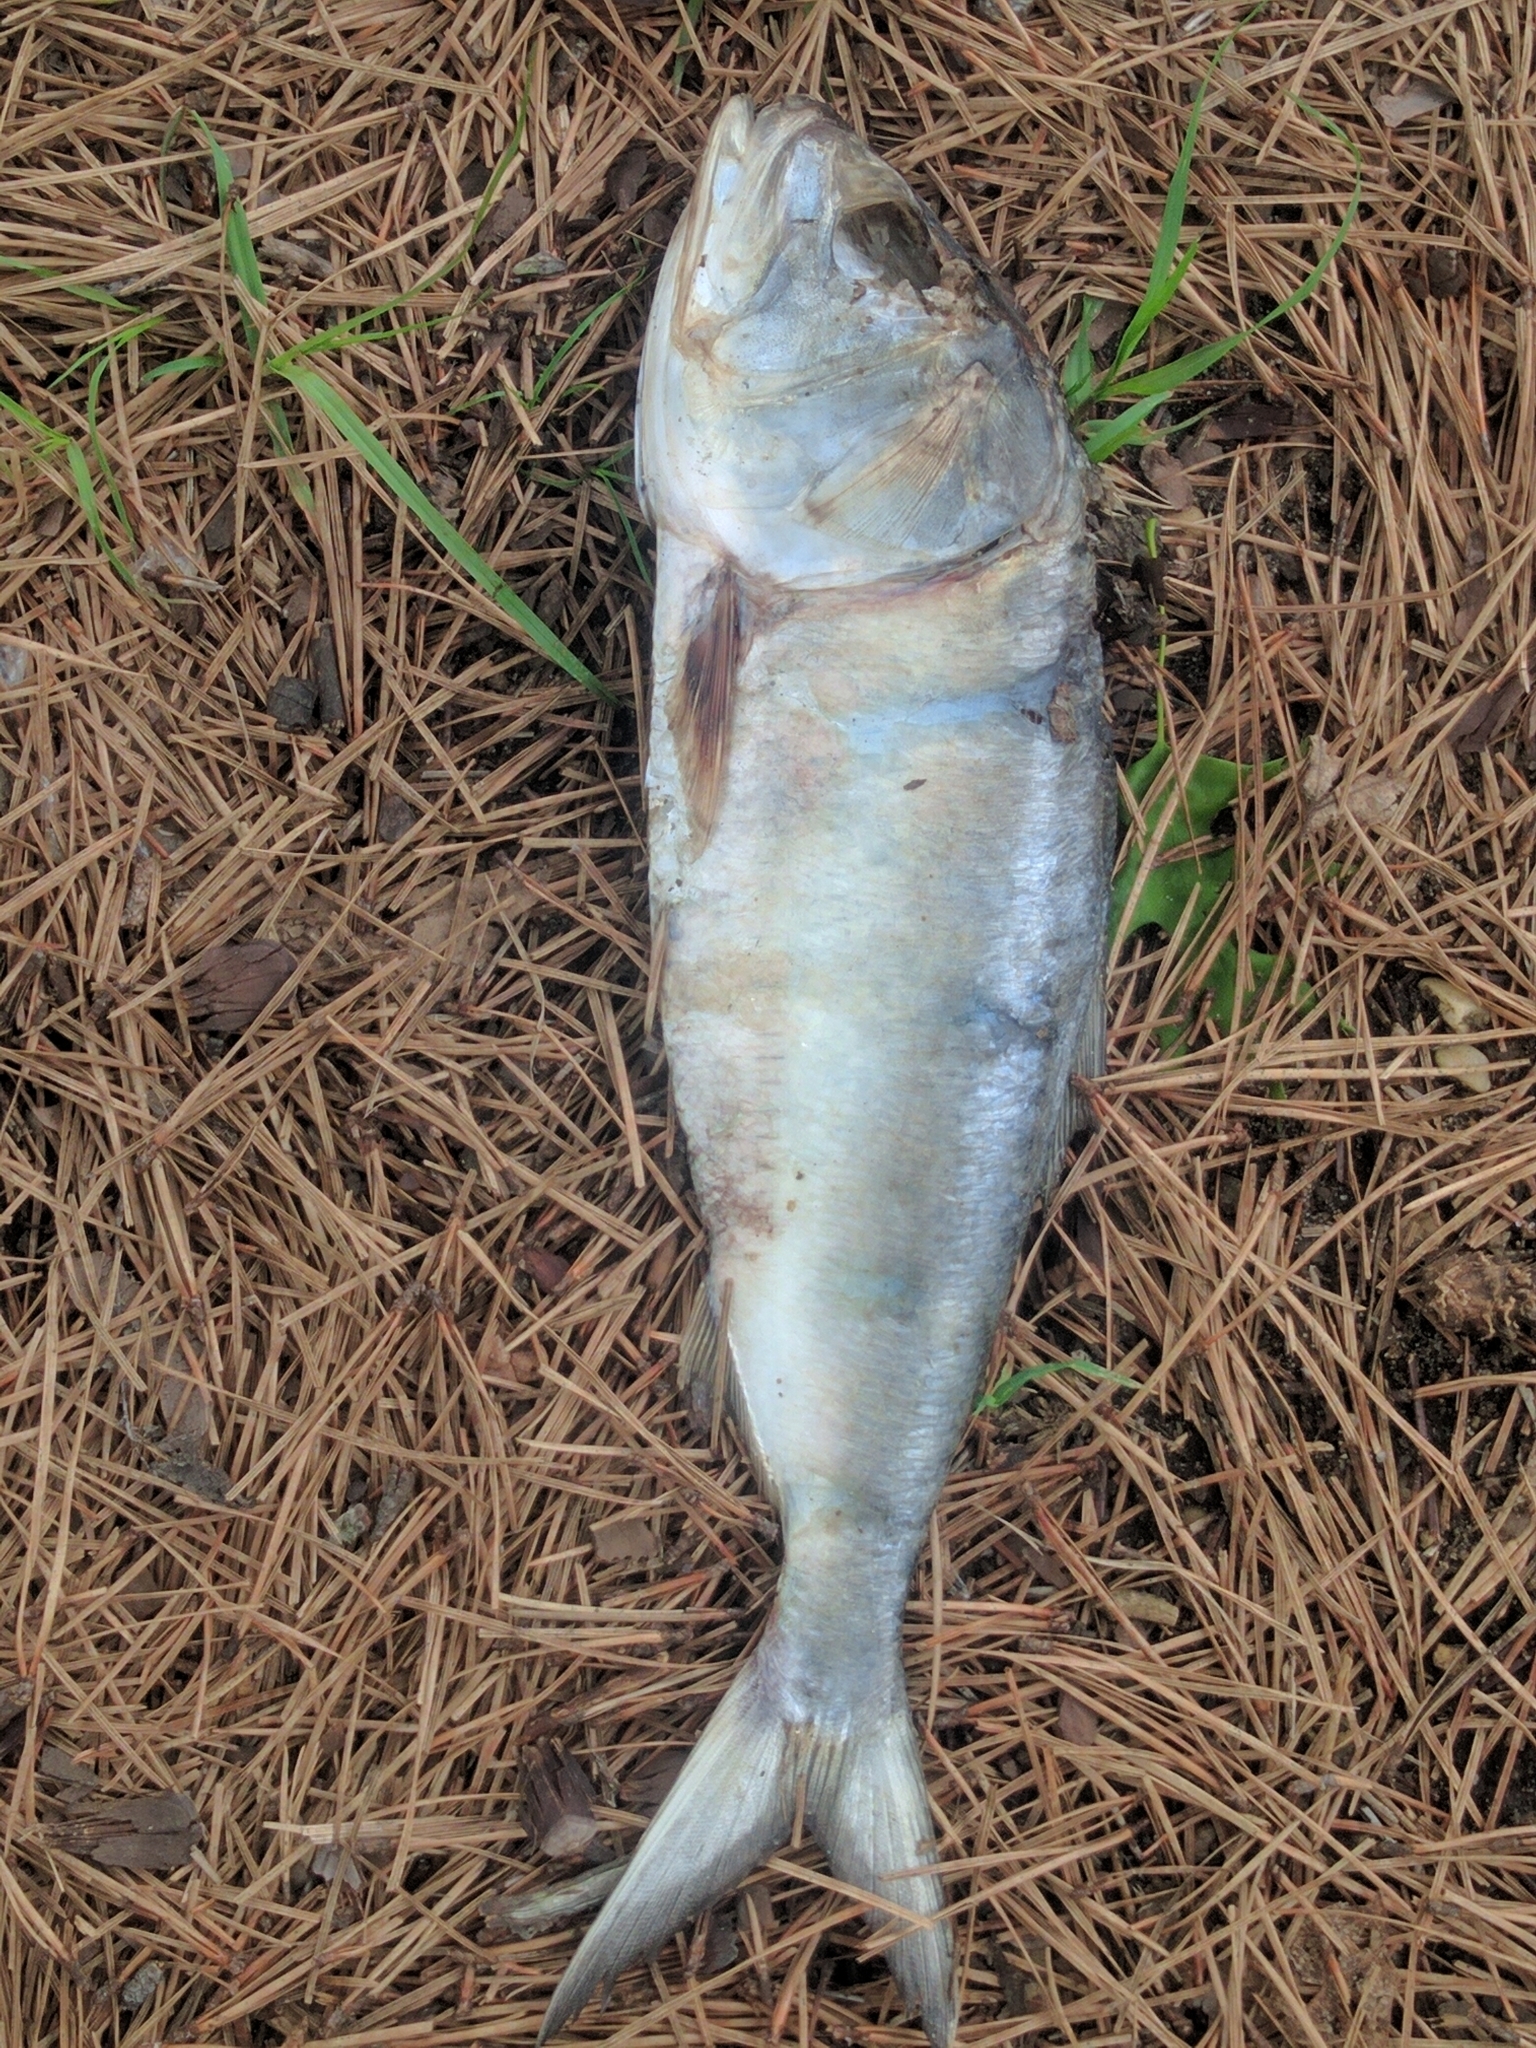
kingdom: Animalia
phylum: Chordata
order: Clupeiformes
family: Clupeidae
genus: Brevoortia
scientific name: Brevoortia tyrannus
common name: Atlantic menhaden
